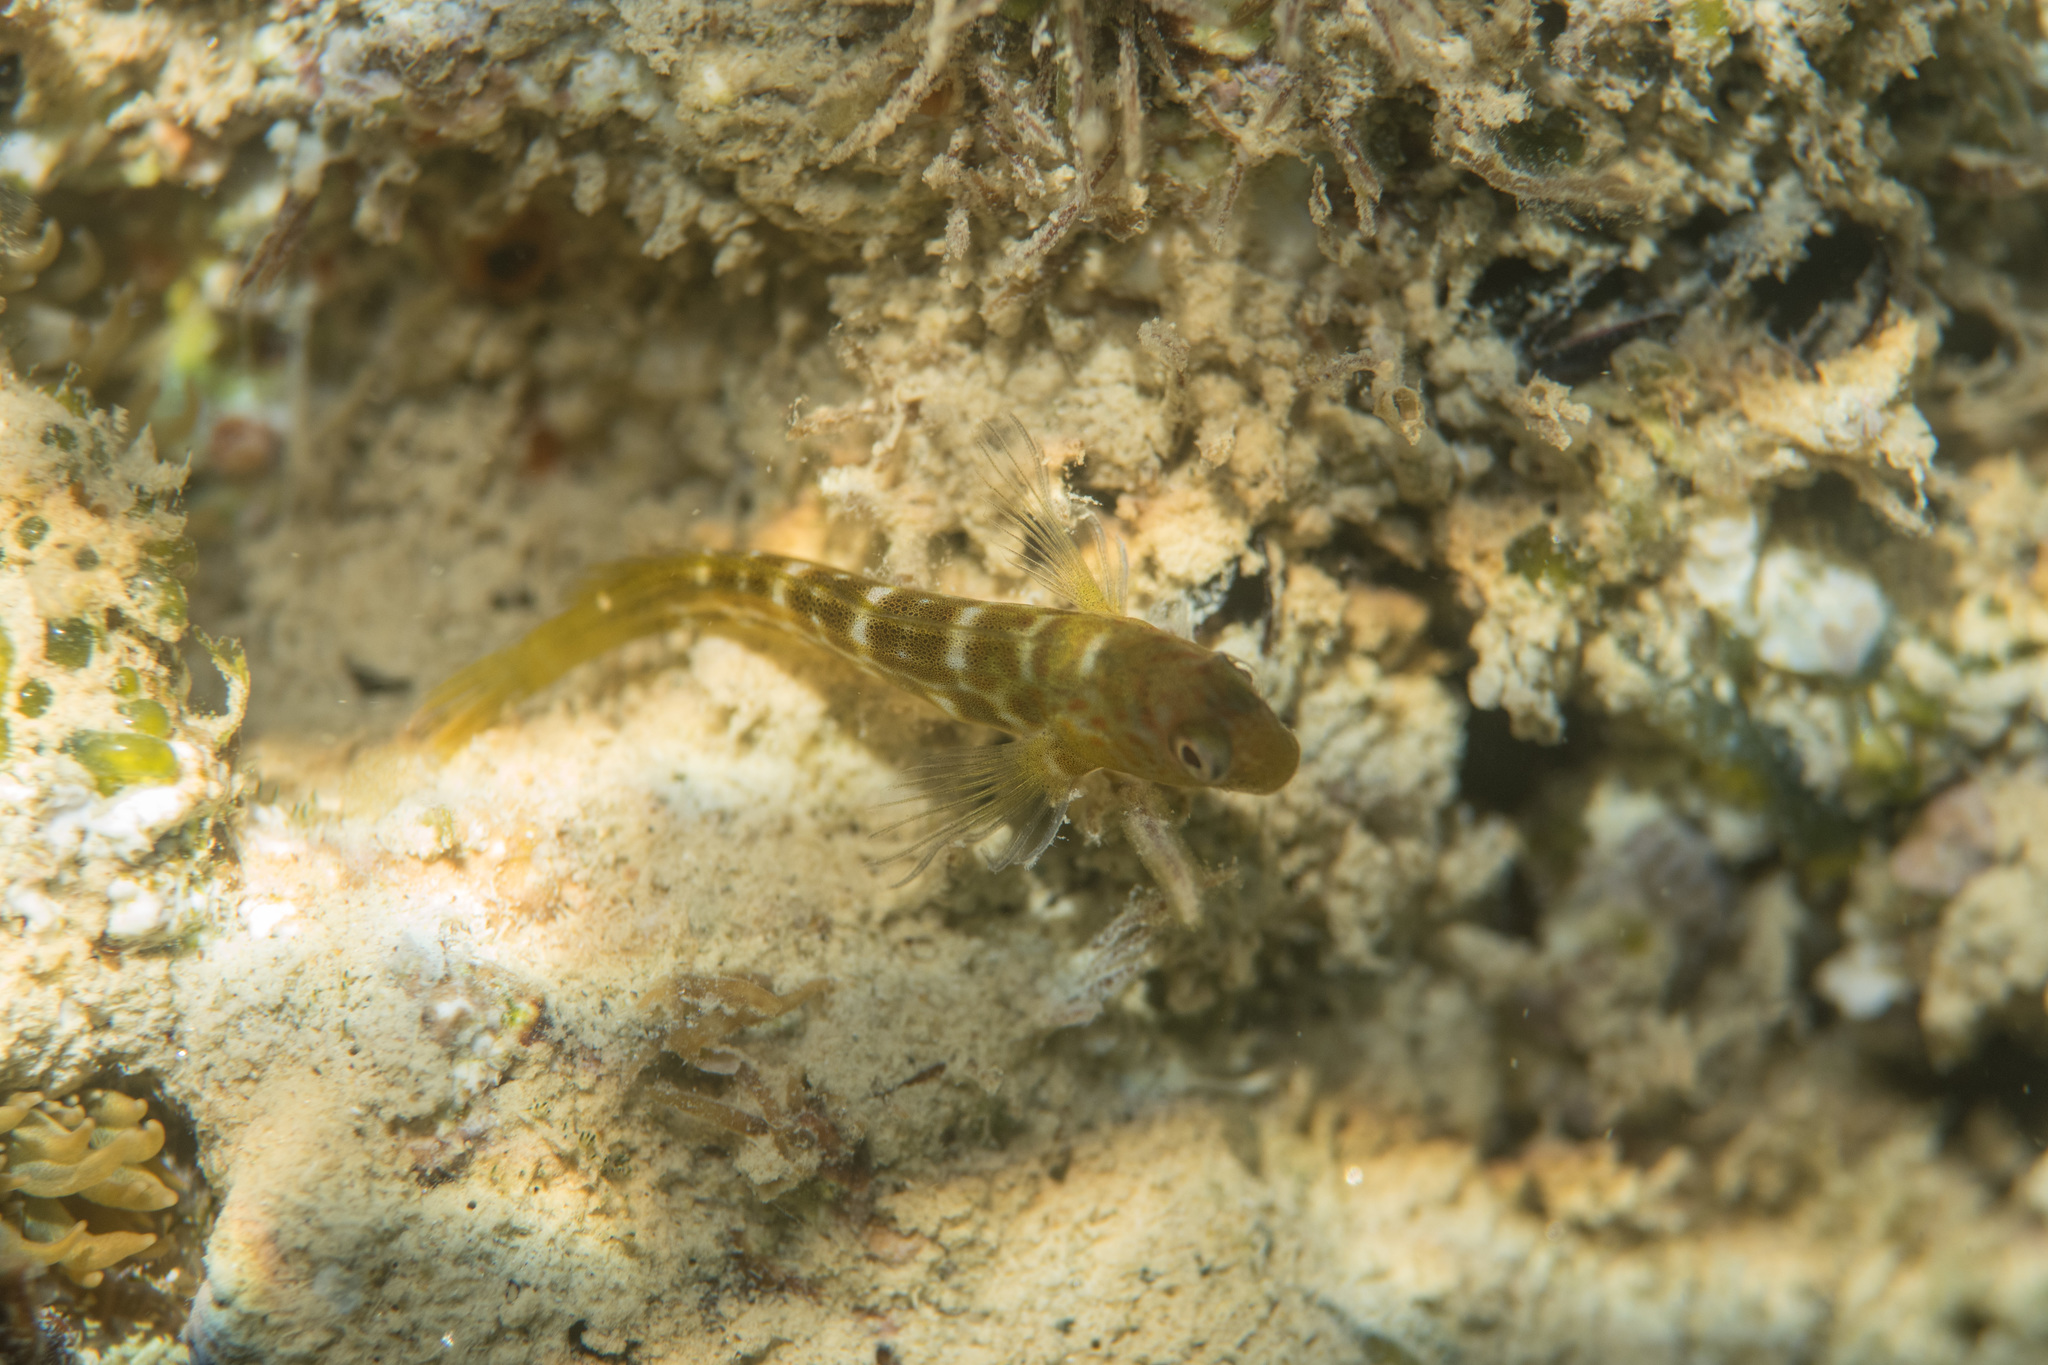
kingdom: Animalia
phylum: Chordata
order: Perciformes
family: Blenniidae
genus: Microlipophrys
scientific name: Microlipophrys canevae
